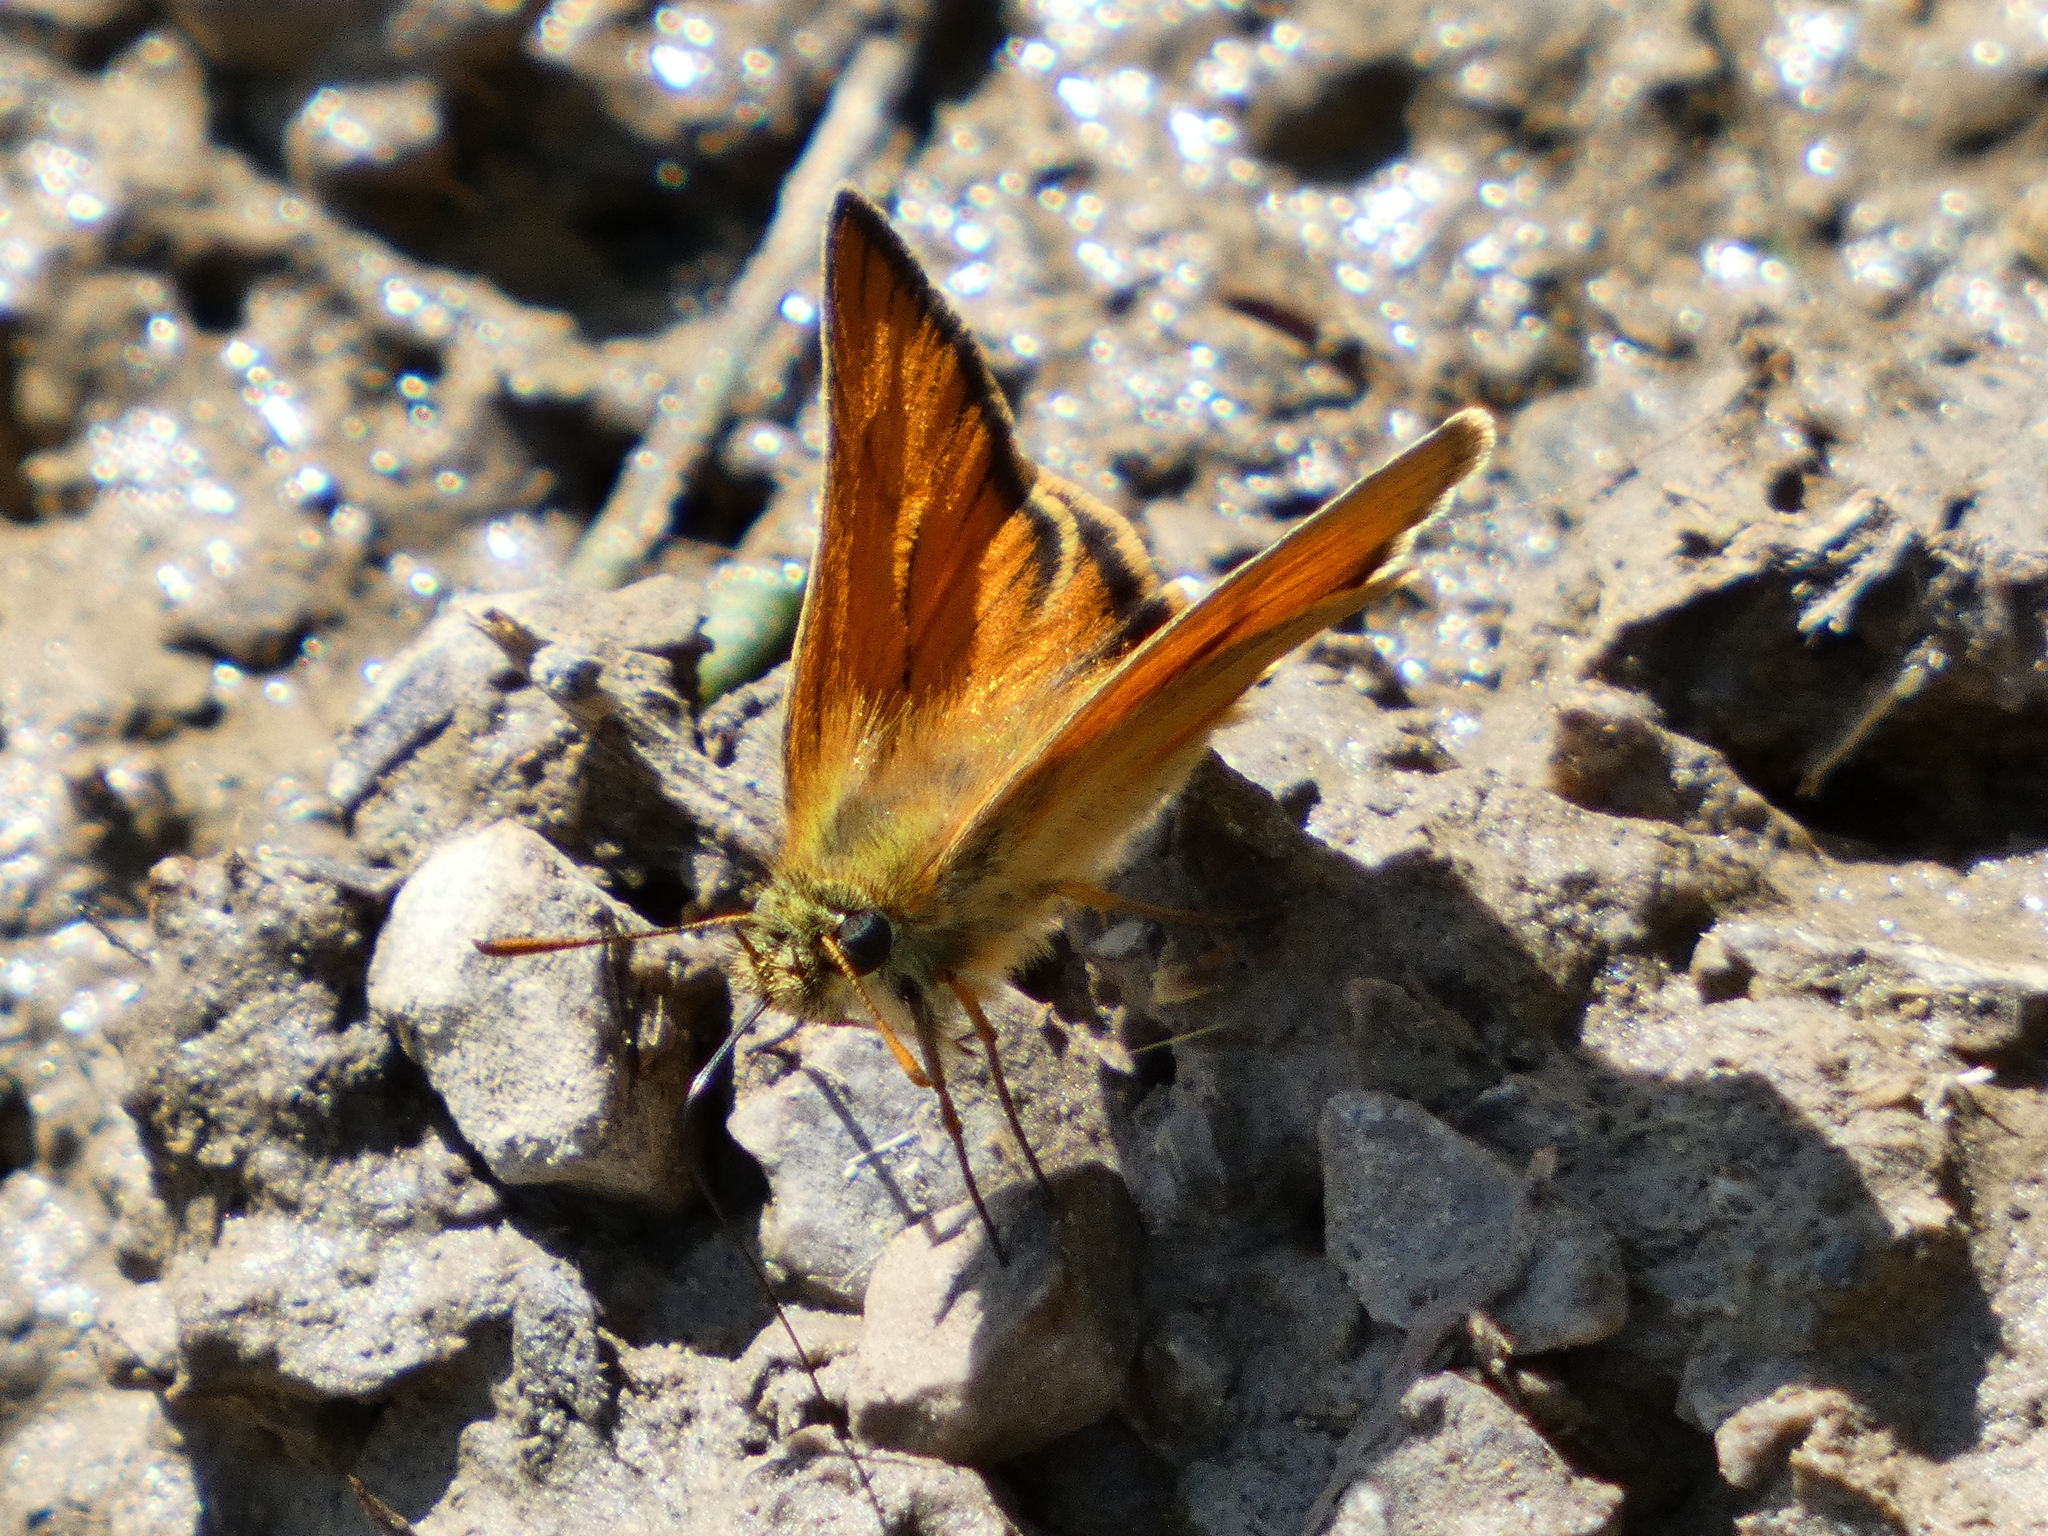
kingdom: Animalia
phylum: Arthropoda
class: Insecta
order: Lepidoptera
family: Hesperiidae
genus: Thymelicus
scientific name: Thymelicus sylvestris
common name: Small skipper
